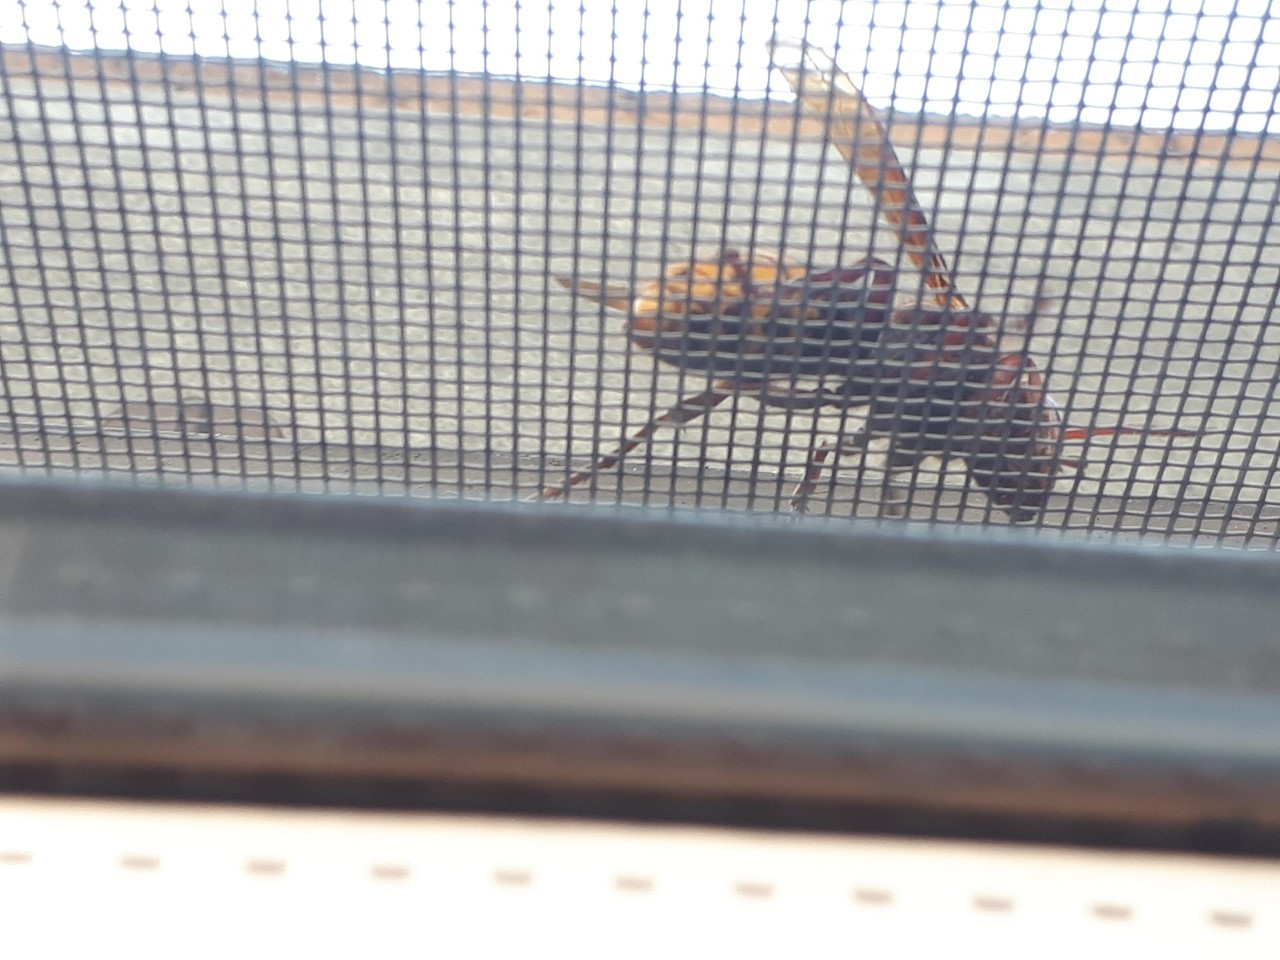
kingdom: Animalia
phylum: Arthropoda
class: Insecta
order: Hymenoptera
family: Vespidae
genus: Vespa
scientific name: Vespa crabro
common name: Hornet
